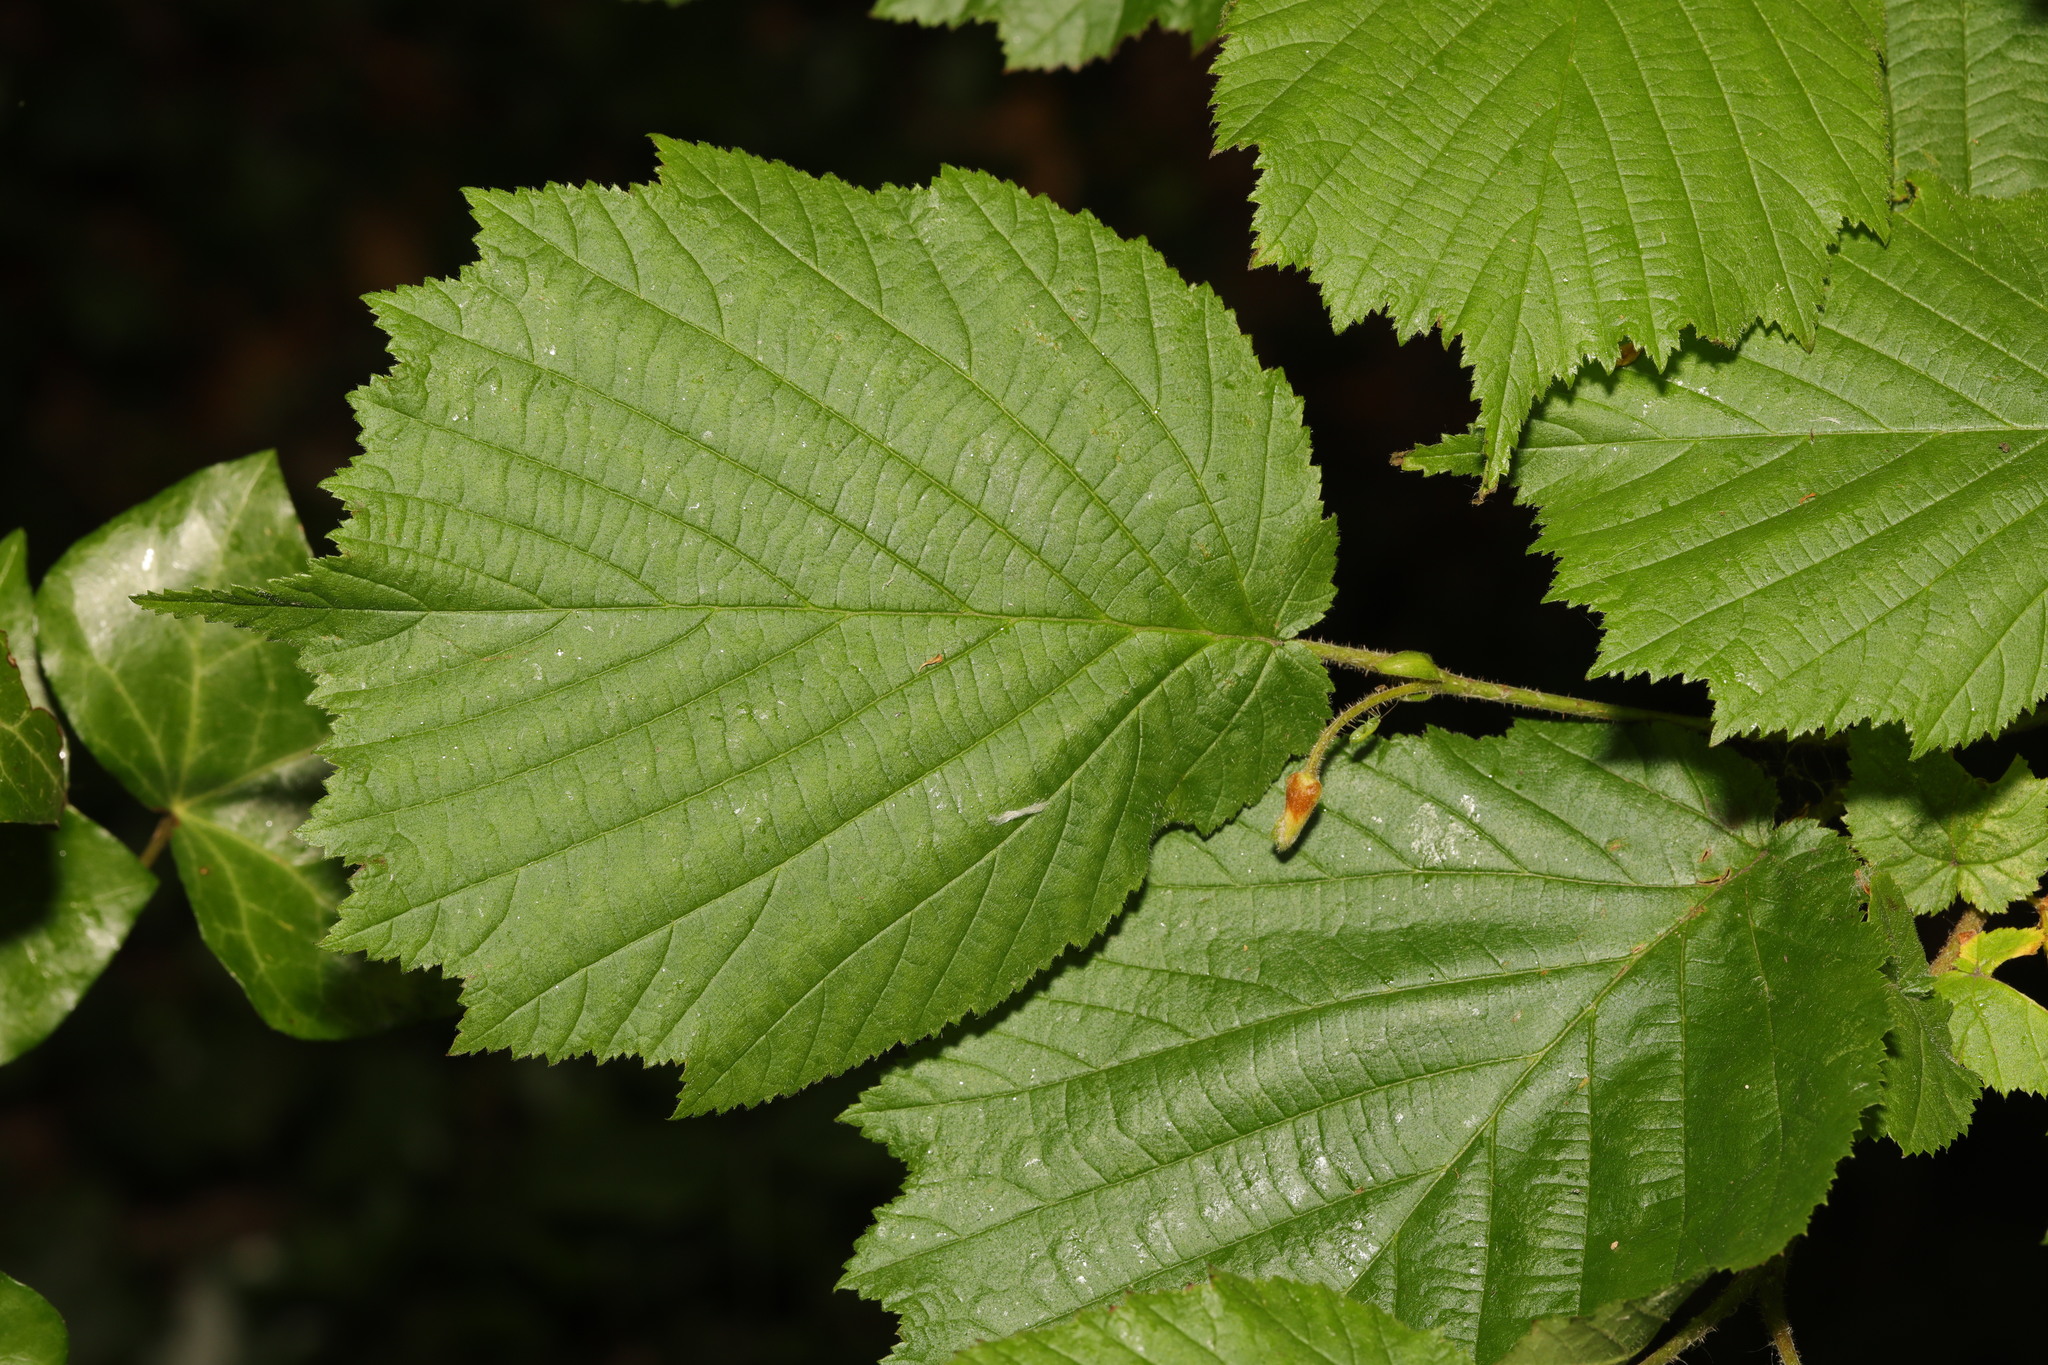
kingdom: Plantae
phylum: Tracheophyta
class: Magnoliopsida
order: Fagales
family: Betulaceae
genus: Corylus
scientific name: Corylus avellana
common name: European hazel
